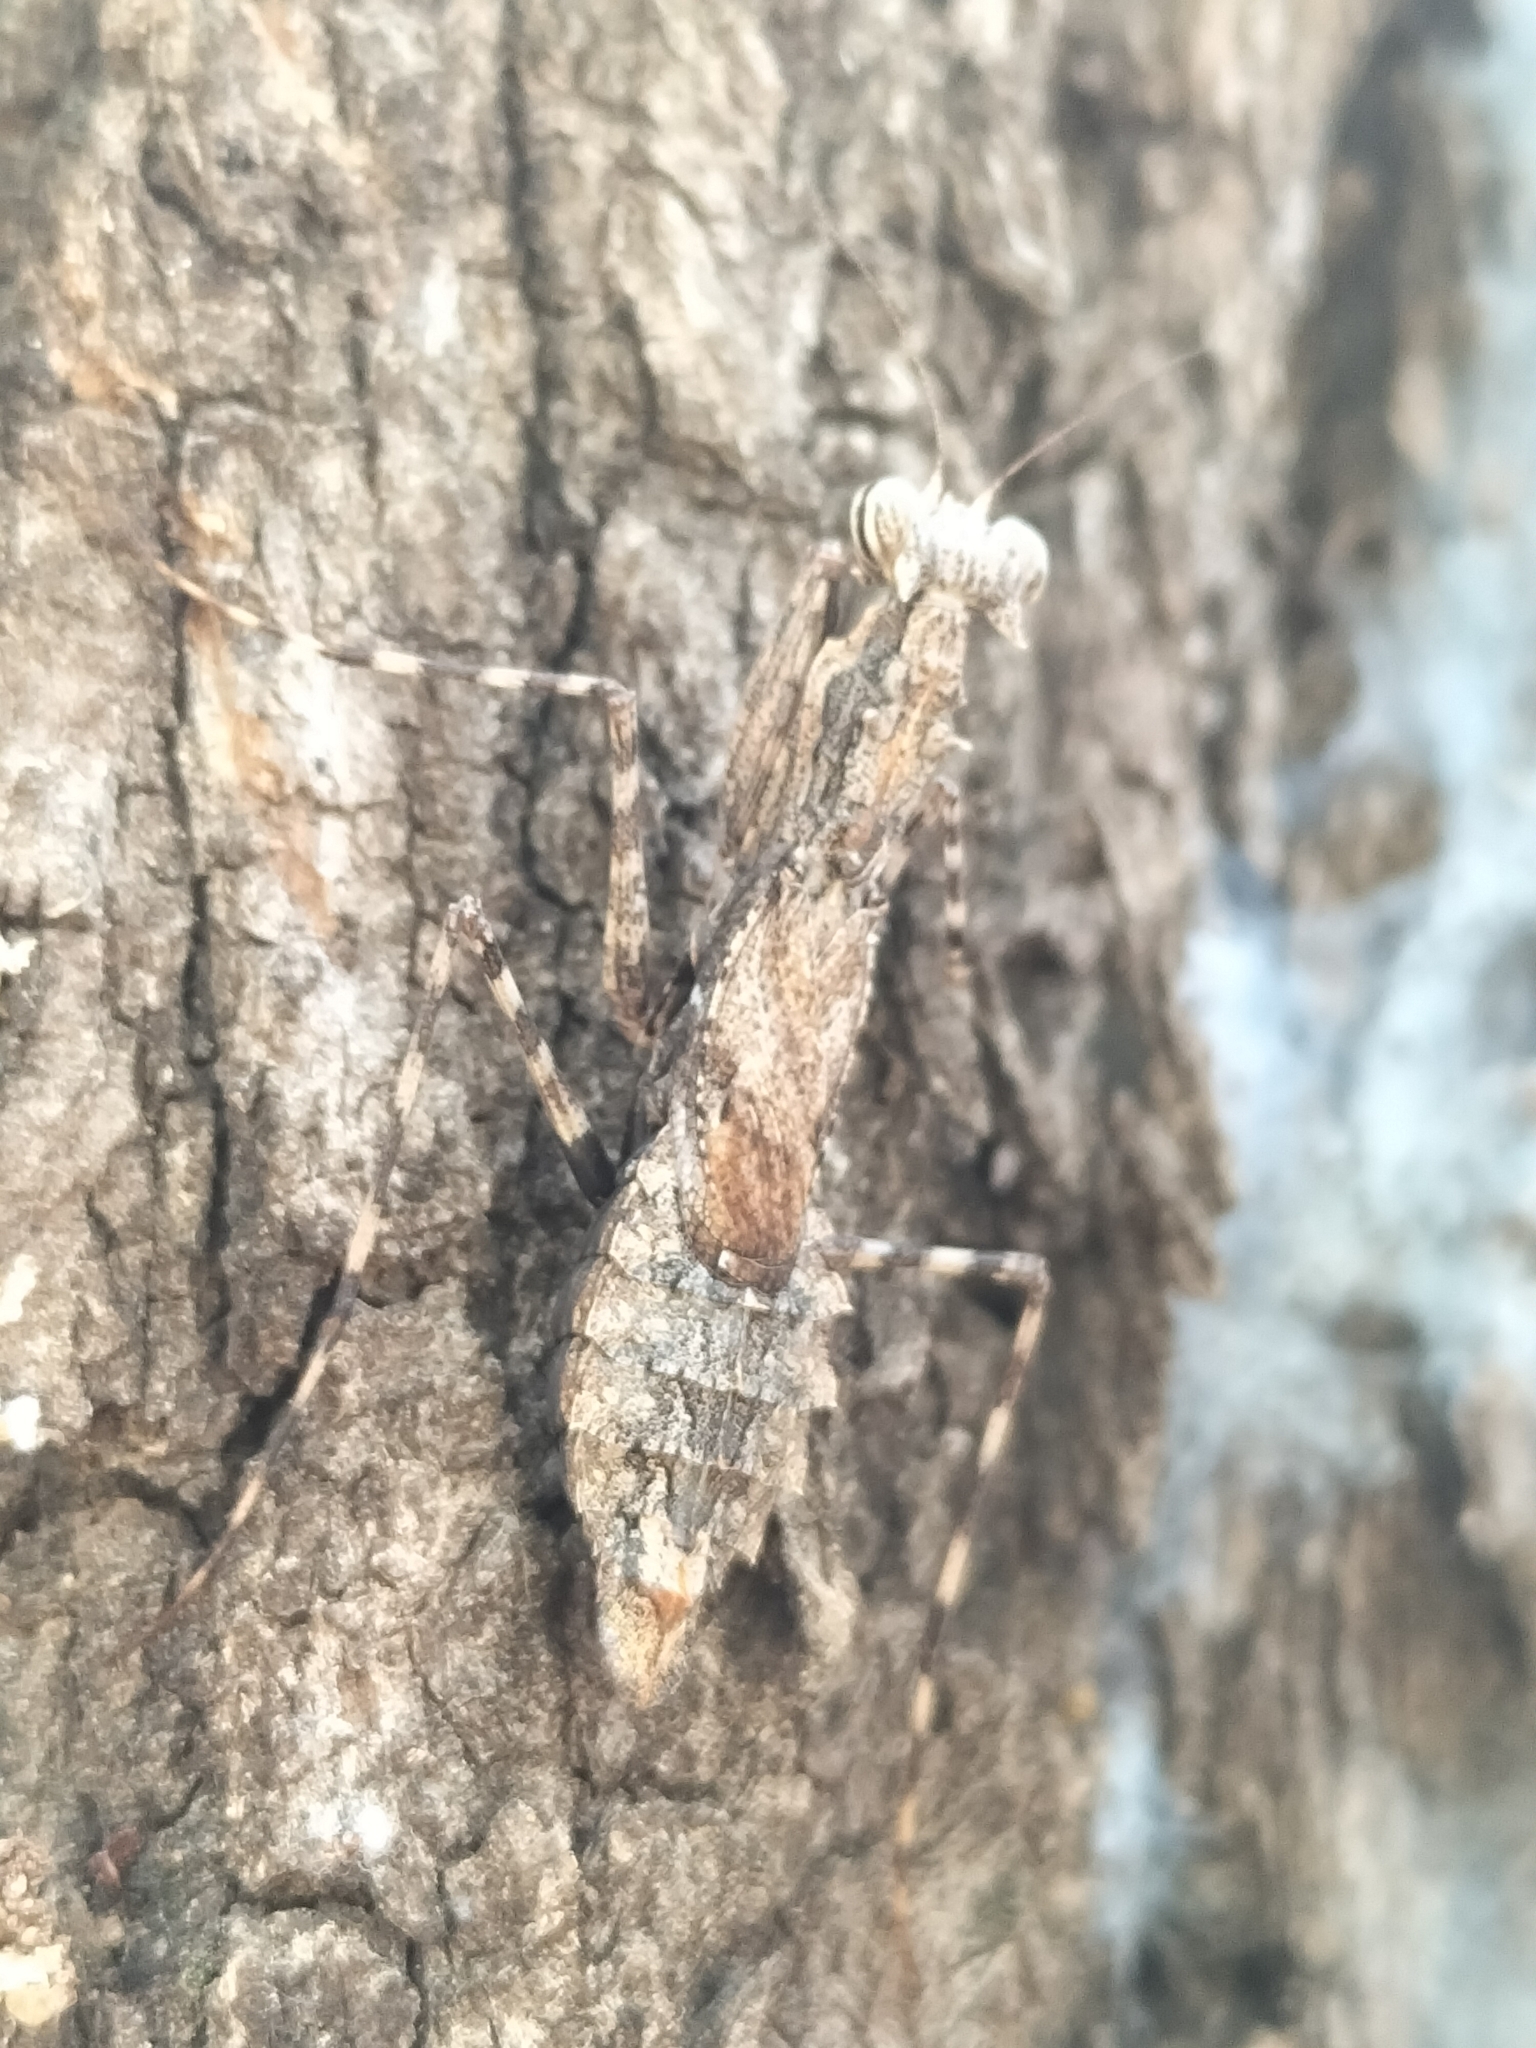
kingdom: Animalia
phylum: Arthropoda
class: Insecta
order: Mantodea
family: Nanomantidae
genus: Gyromantis
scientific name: Gyromantis occidentalis
